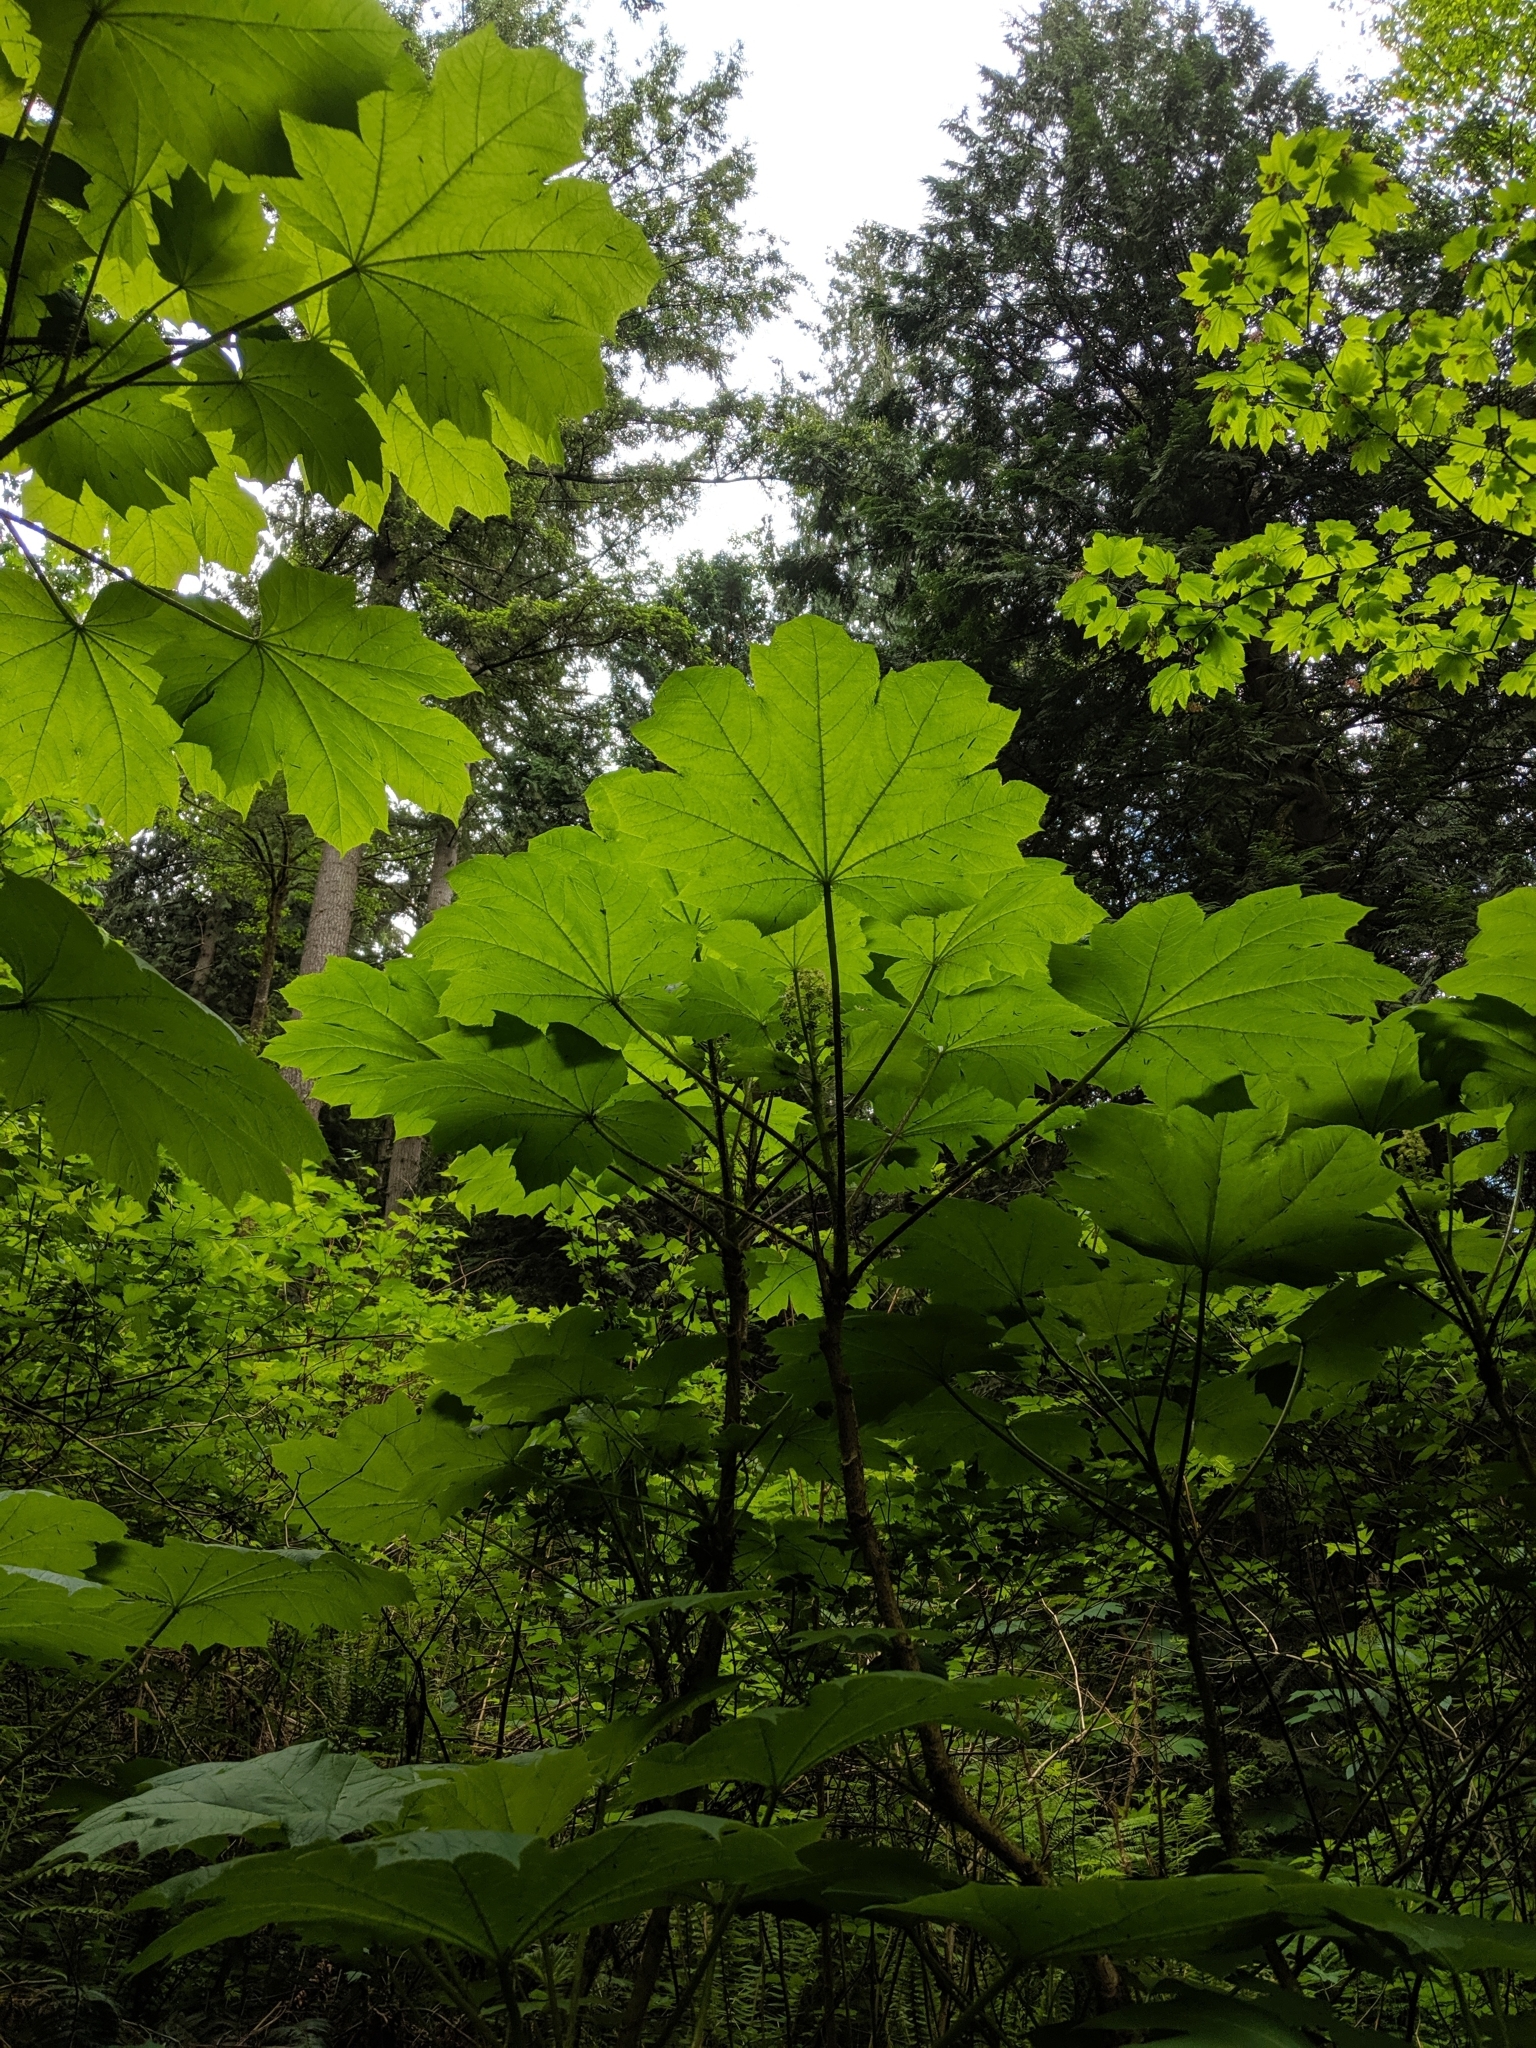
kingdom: Plantae
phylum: Tracheophyta
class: Magnoliopsida
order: Apiales
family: Araliaceae
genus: Oplopanax
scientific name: Oplopanax horridus
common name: Devil's walking-stick
